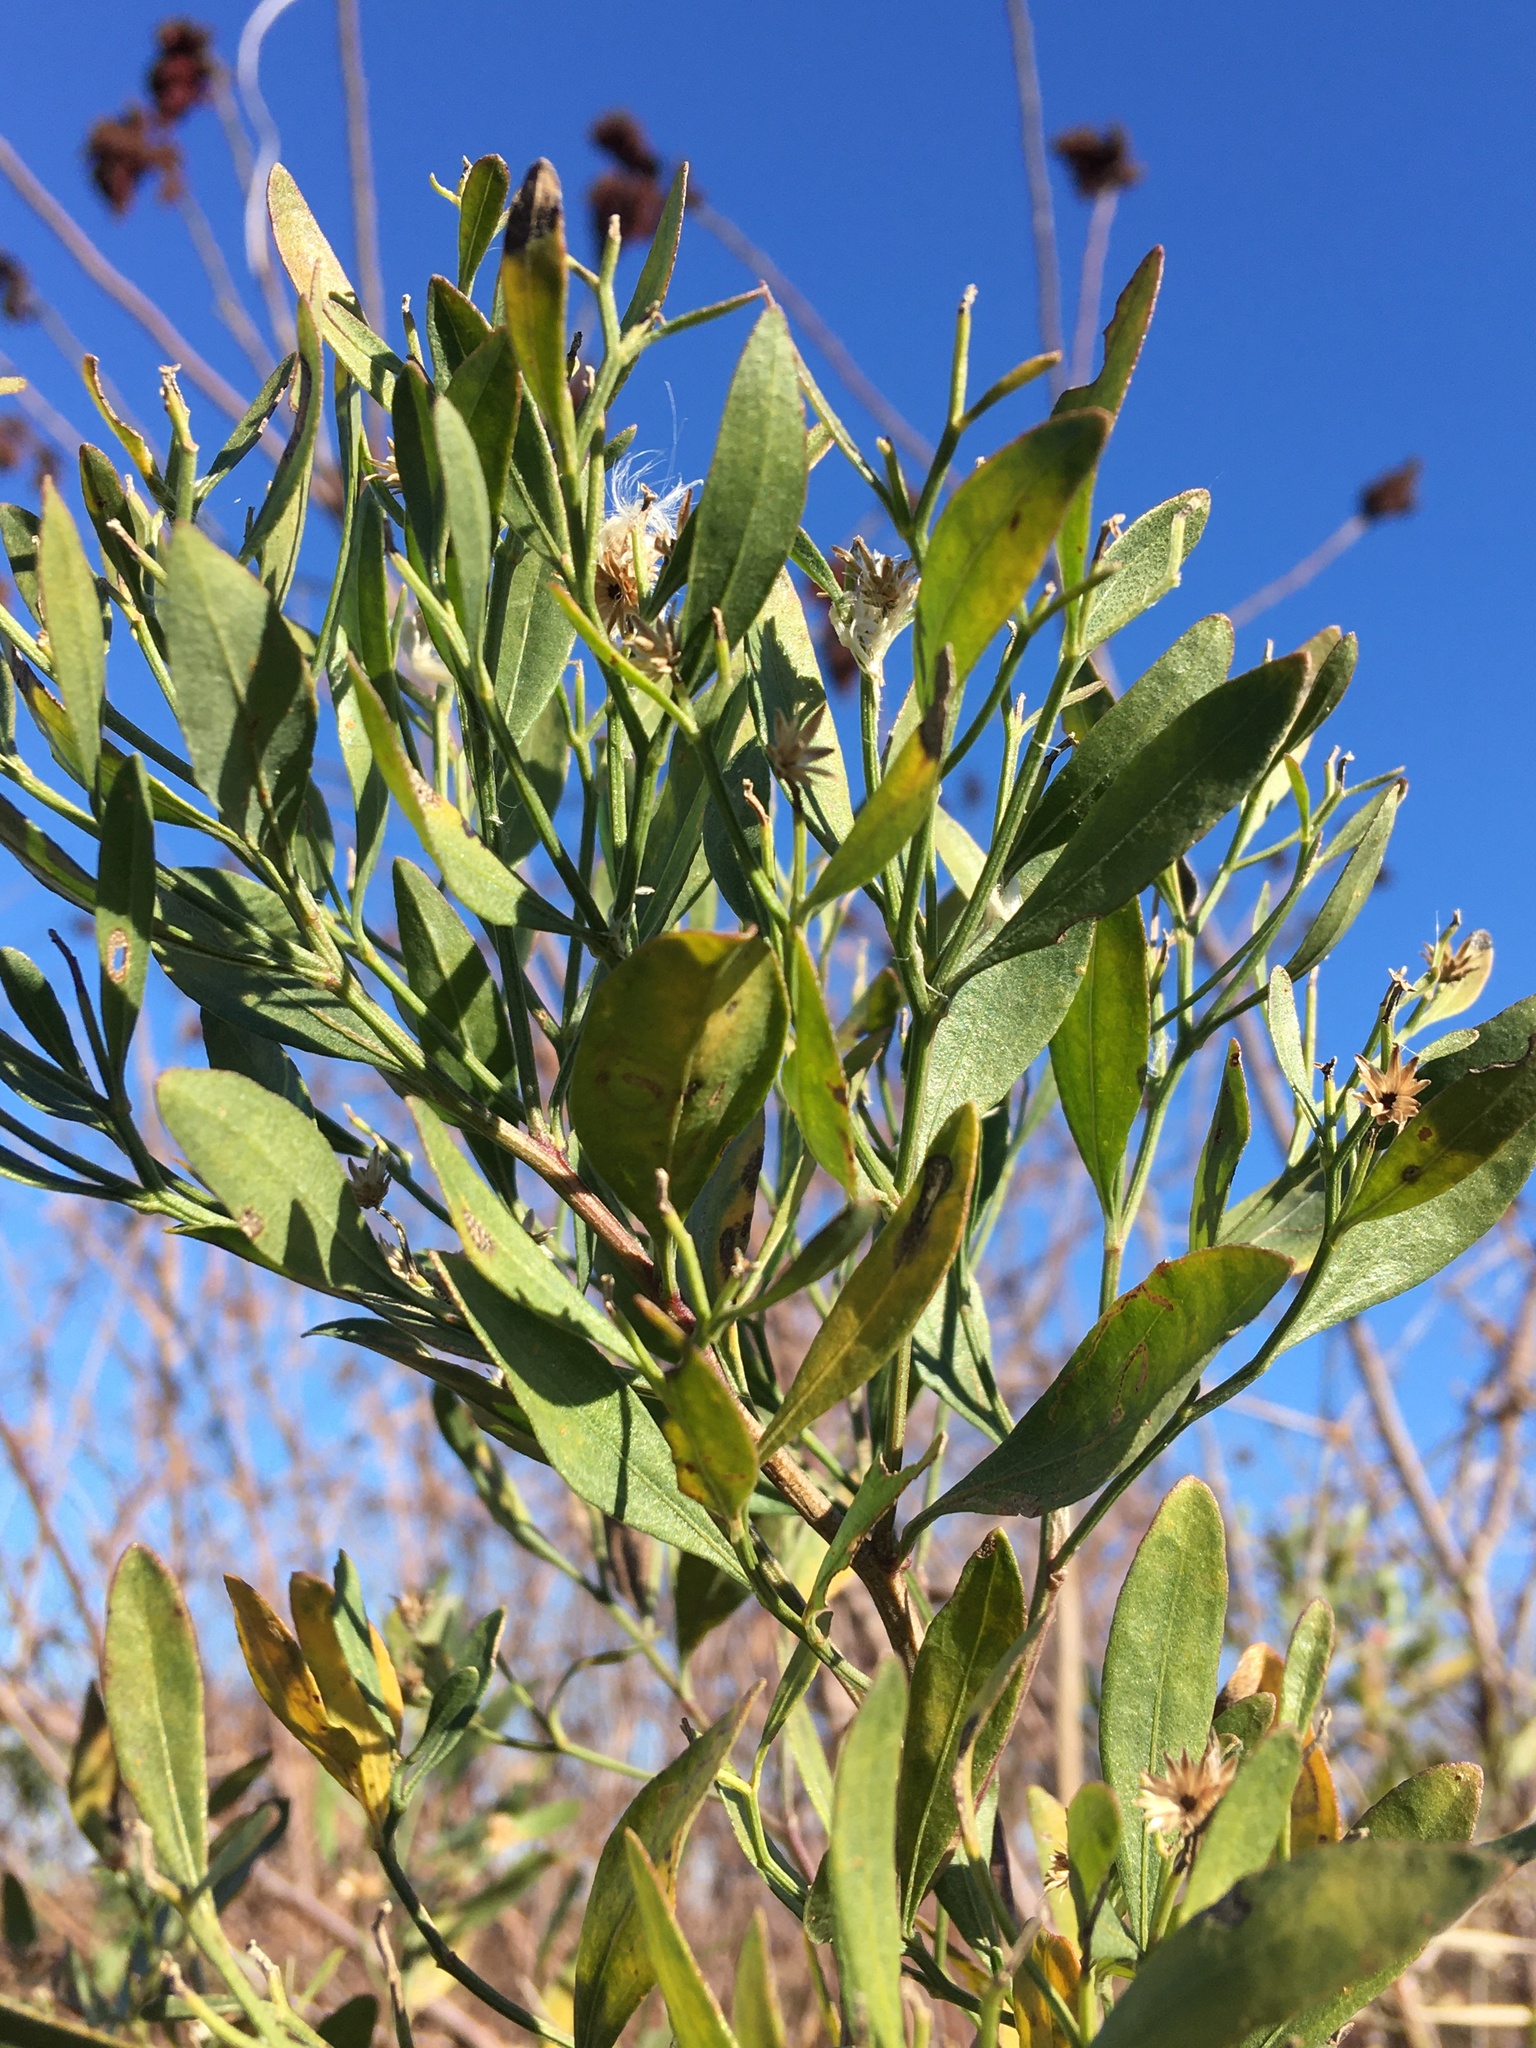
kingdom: Plantae
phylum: Tracheophyta
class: Magnoliopsida
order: Asterales
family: Asteraceae
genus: Baccharis
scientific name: Baccharis halimifolia
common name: Eastern baccharis
